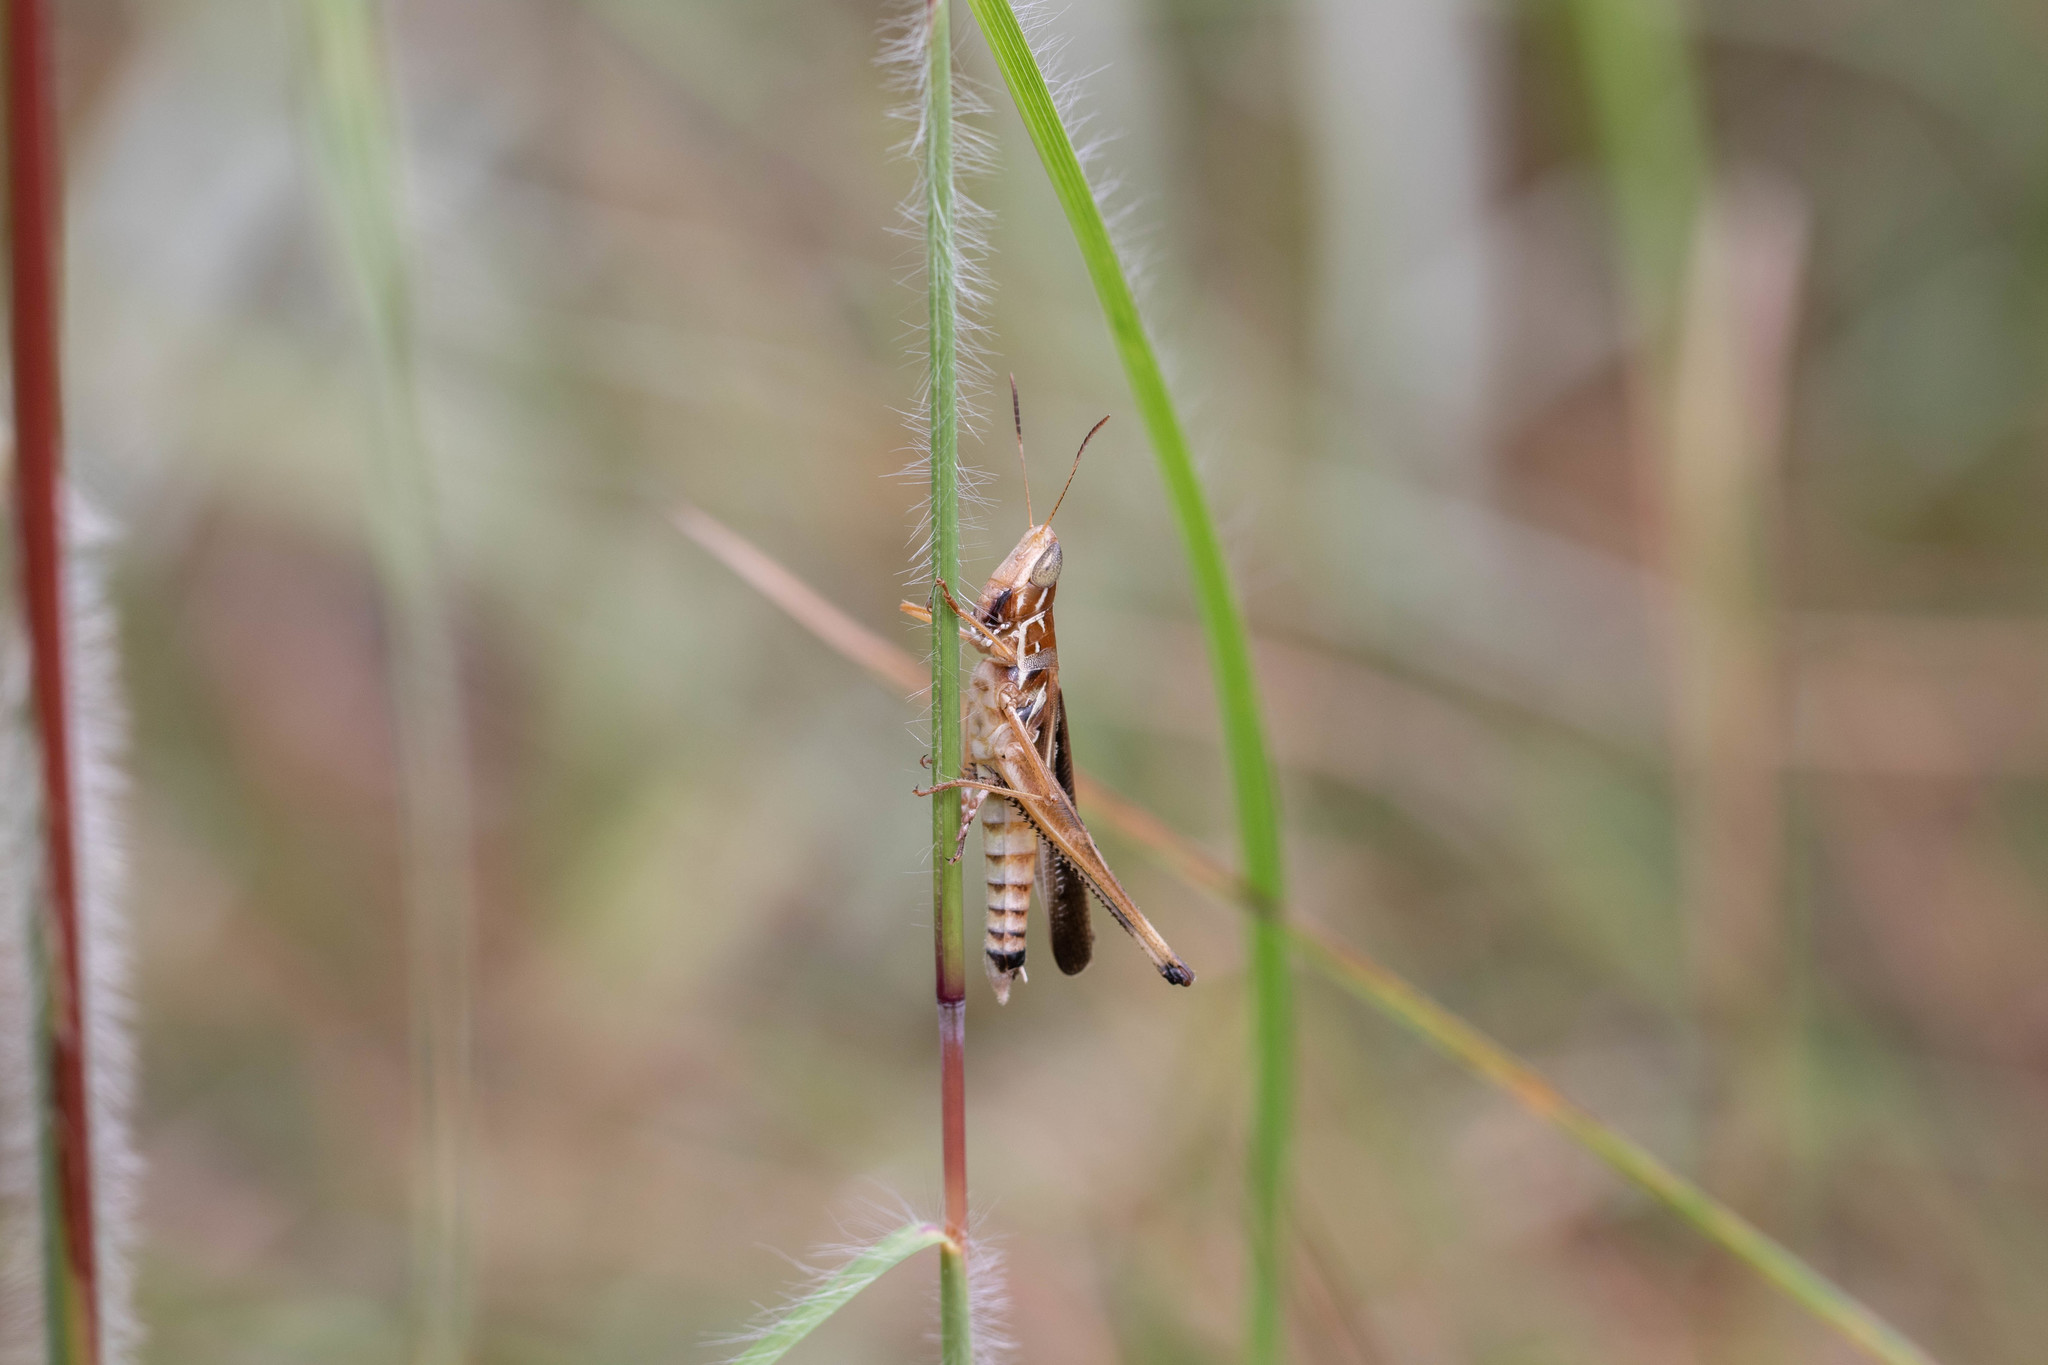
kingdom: Animalia
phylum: Arthropoda
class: Insecta
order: Orthoptera
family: Acrididae
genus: Syrbula
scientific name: Syrbula admirabilis
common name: Handsome grasshopper
